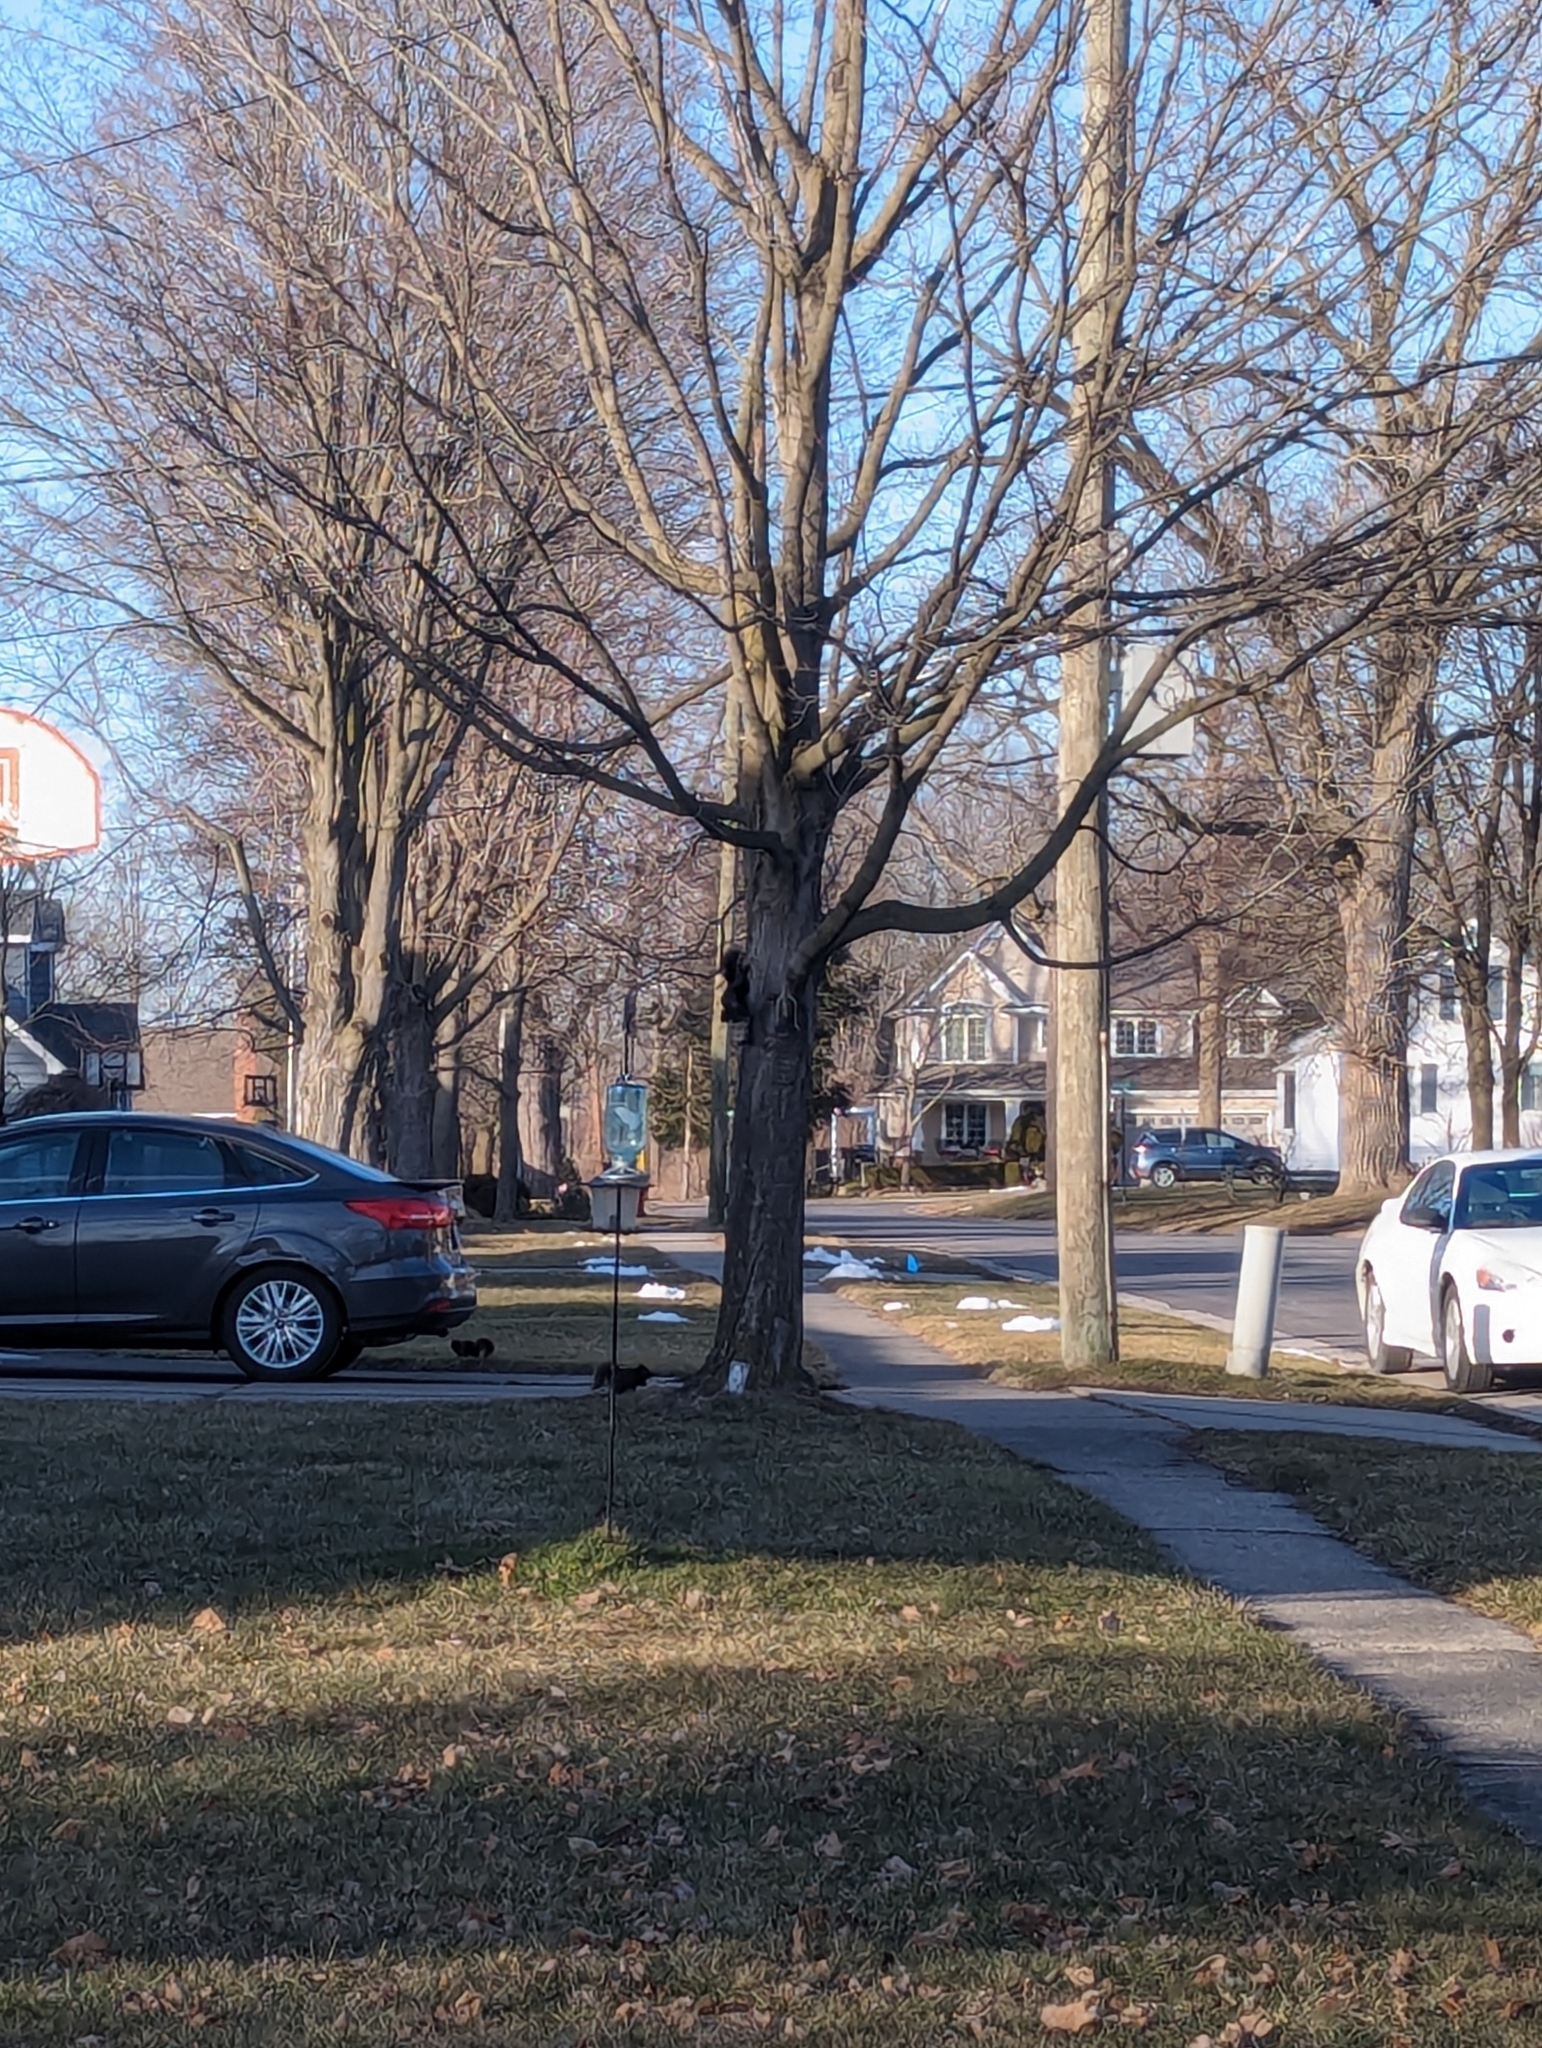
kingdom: Animalia
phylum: Chordata
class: Mammalia
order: Rodentia
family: Sciuridae
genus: Sciurus
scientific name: Sciurus carolinensis
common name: Eastern gray squirrel
